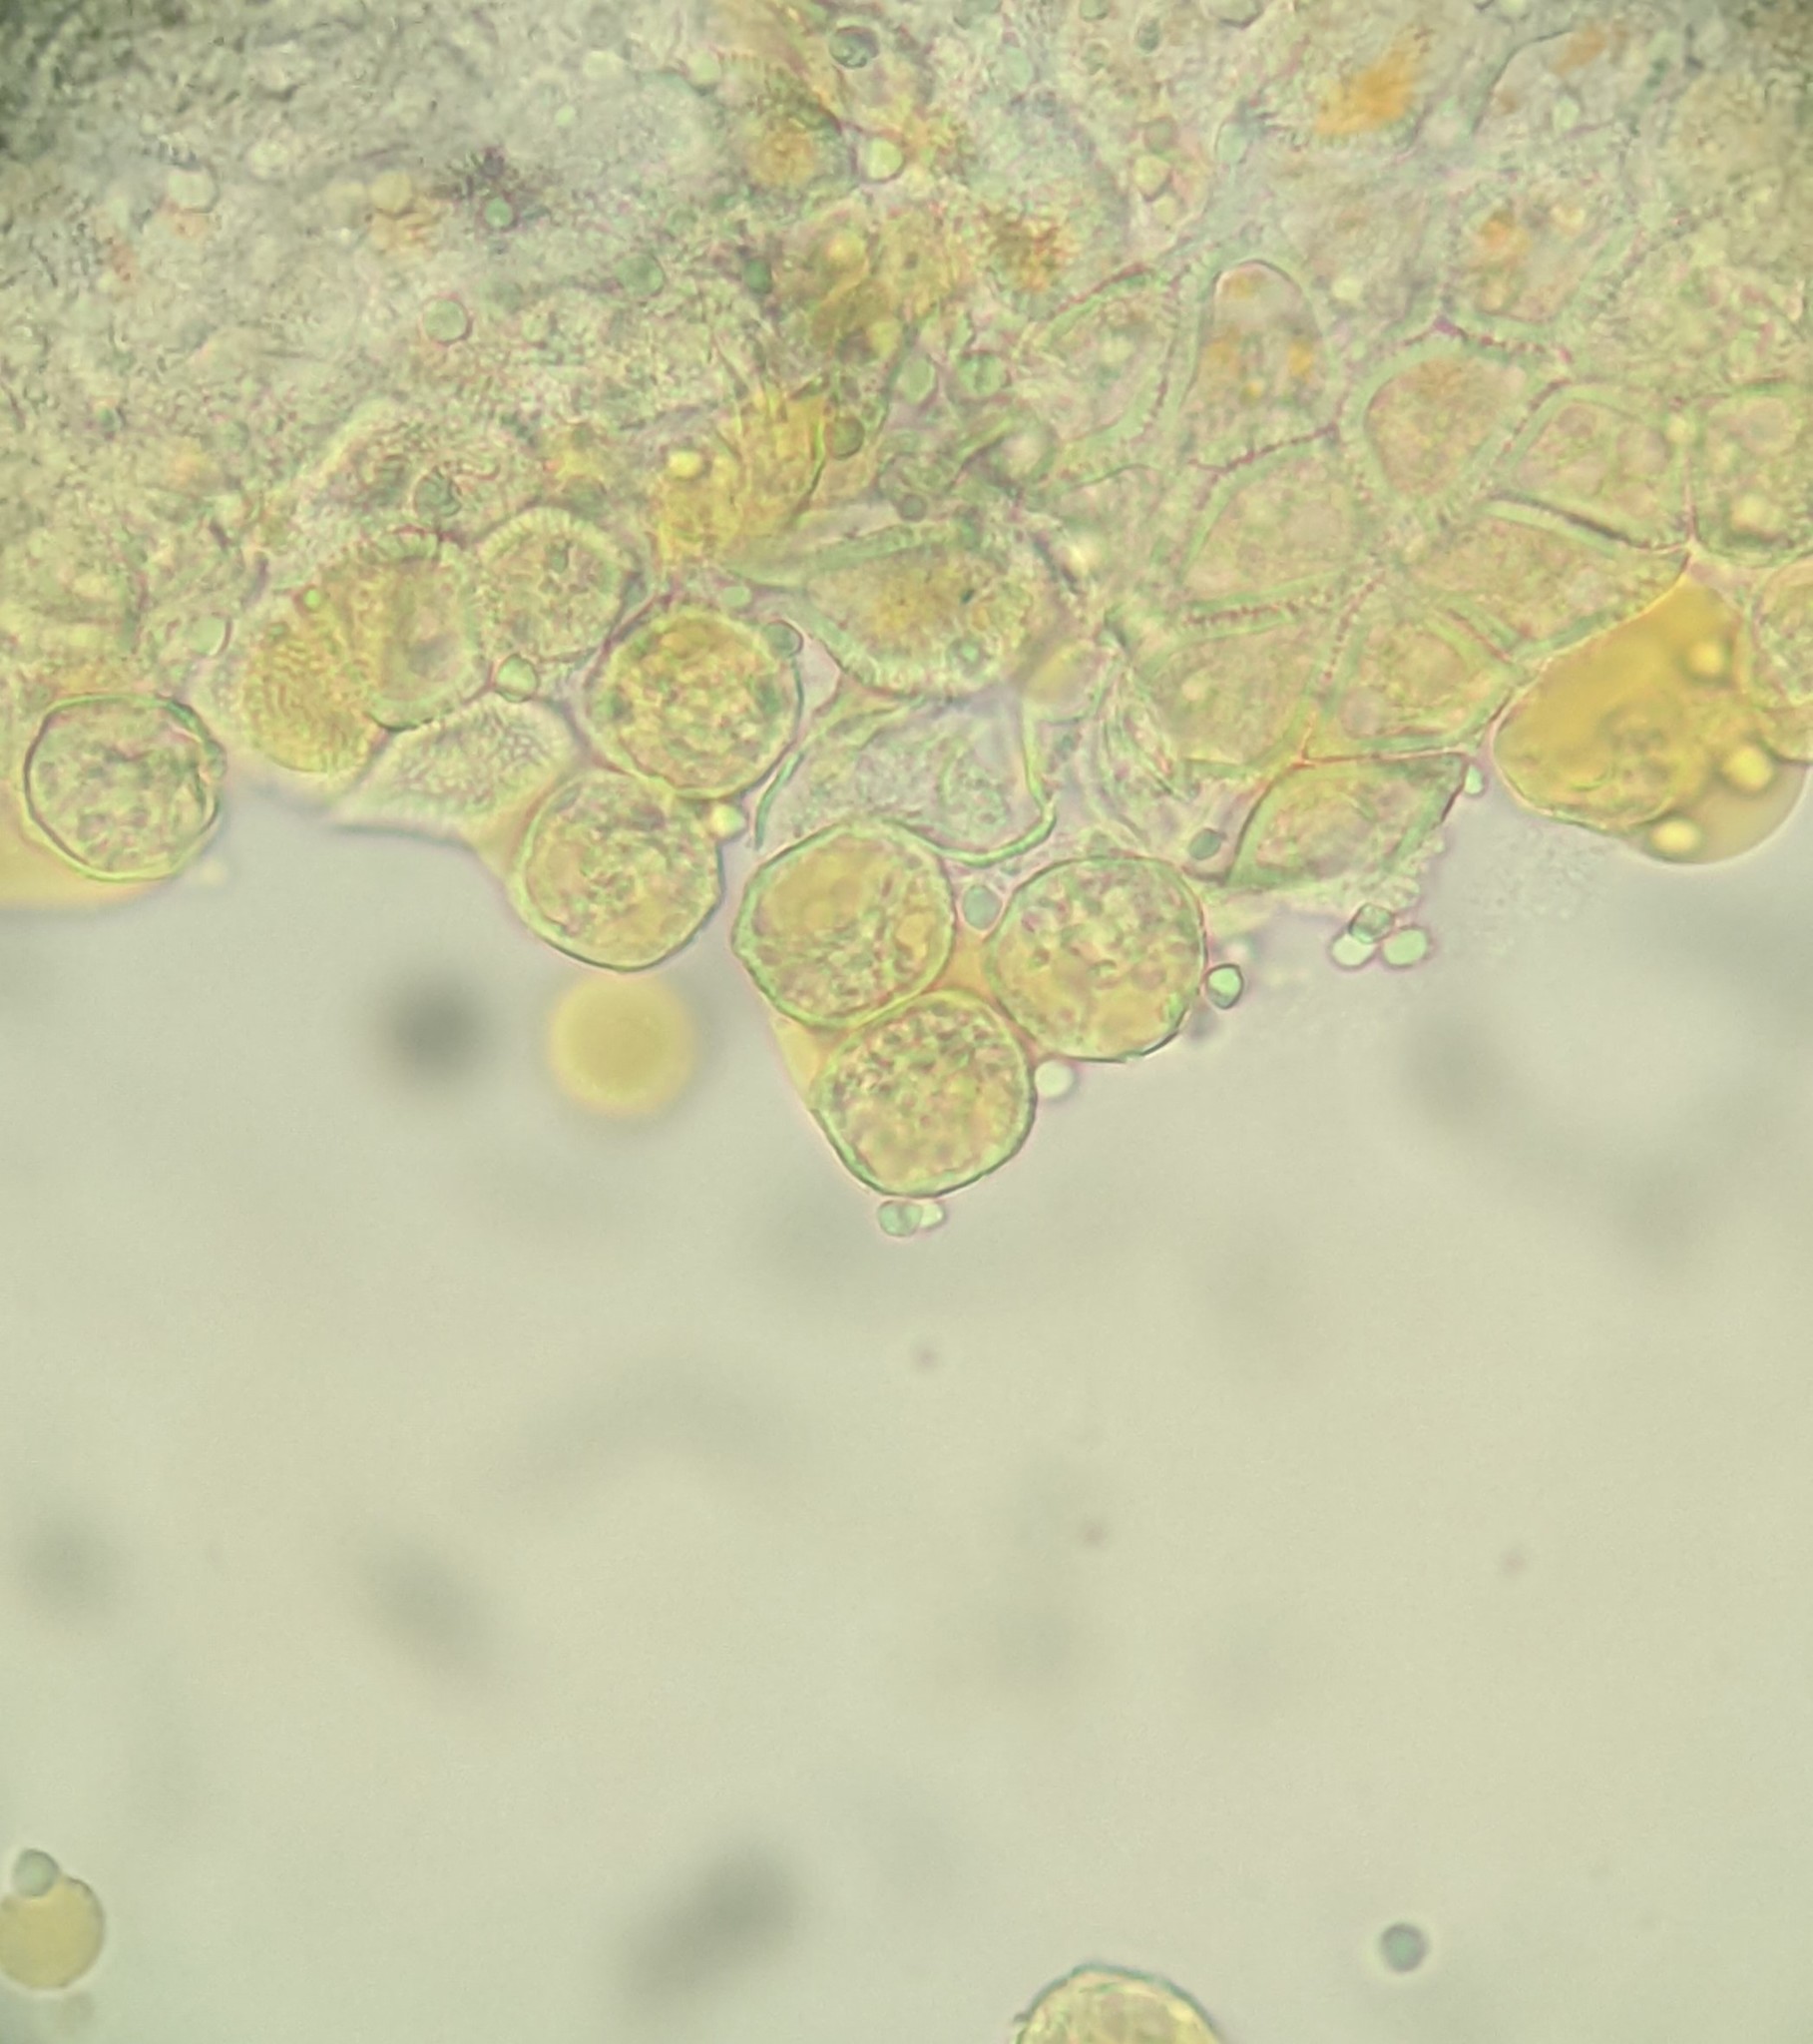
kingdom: Fungi
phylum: Basidiomycota
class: Pucciniomycetes
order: Pucciniales
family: Pucciniaceae
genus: Puccinia
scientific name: Puccinia cymbiformis
